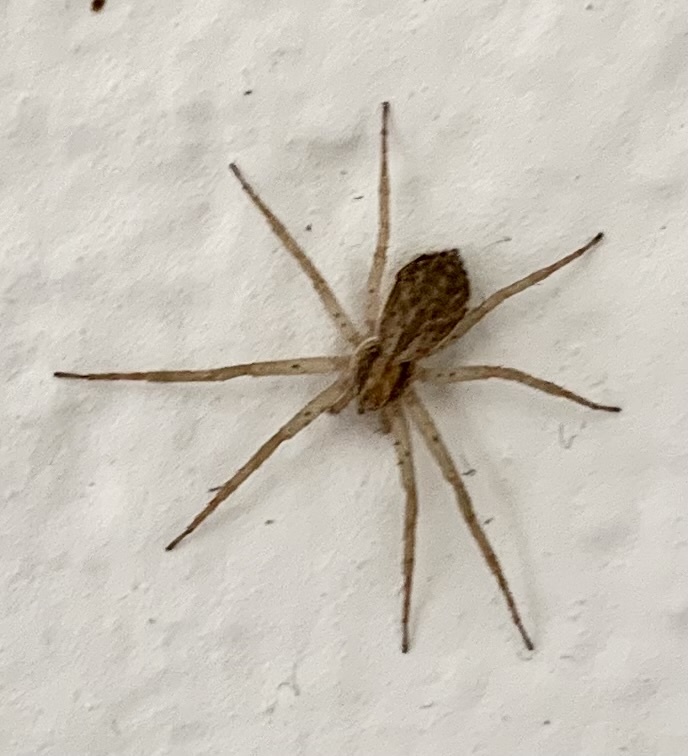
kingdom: Animalia
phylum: Arthropoda
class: Arachnida
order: Araneae
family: Philodromidae
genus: Philodromus
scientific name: Philodromus dispar
